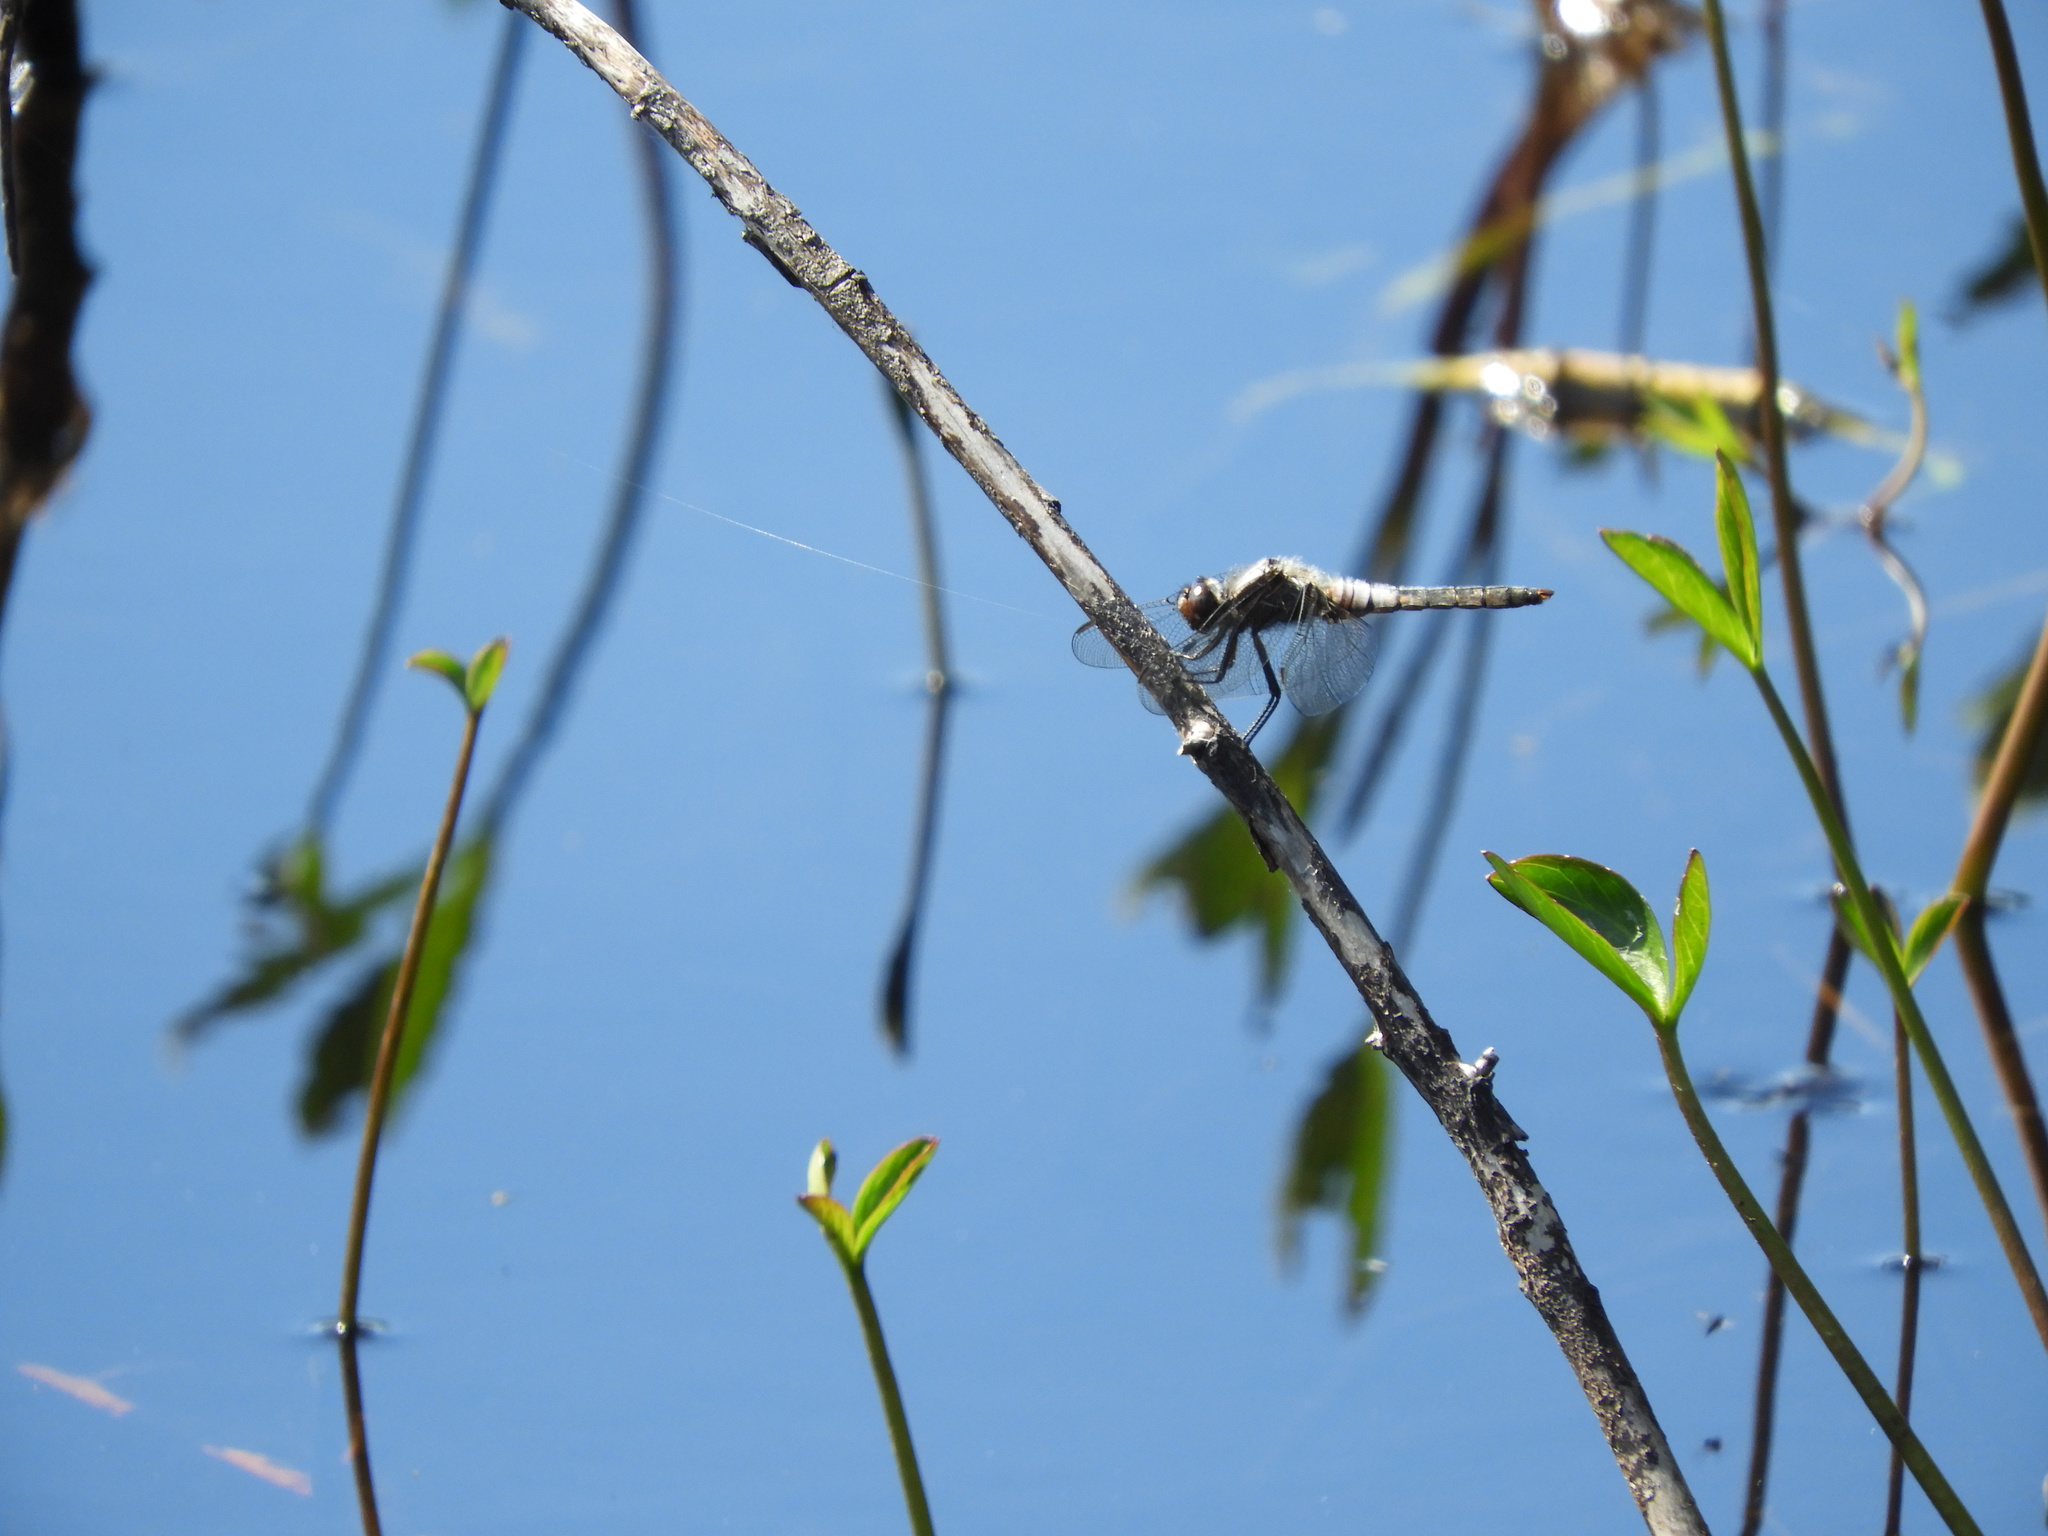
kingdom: Animalia
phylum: Arthropoda
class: Insecta
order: Odonata
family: Libellulidae
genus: Ladona
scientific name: Ladona julia
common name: Chalk-fronted corporal
